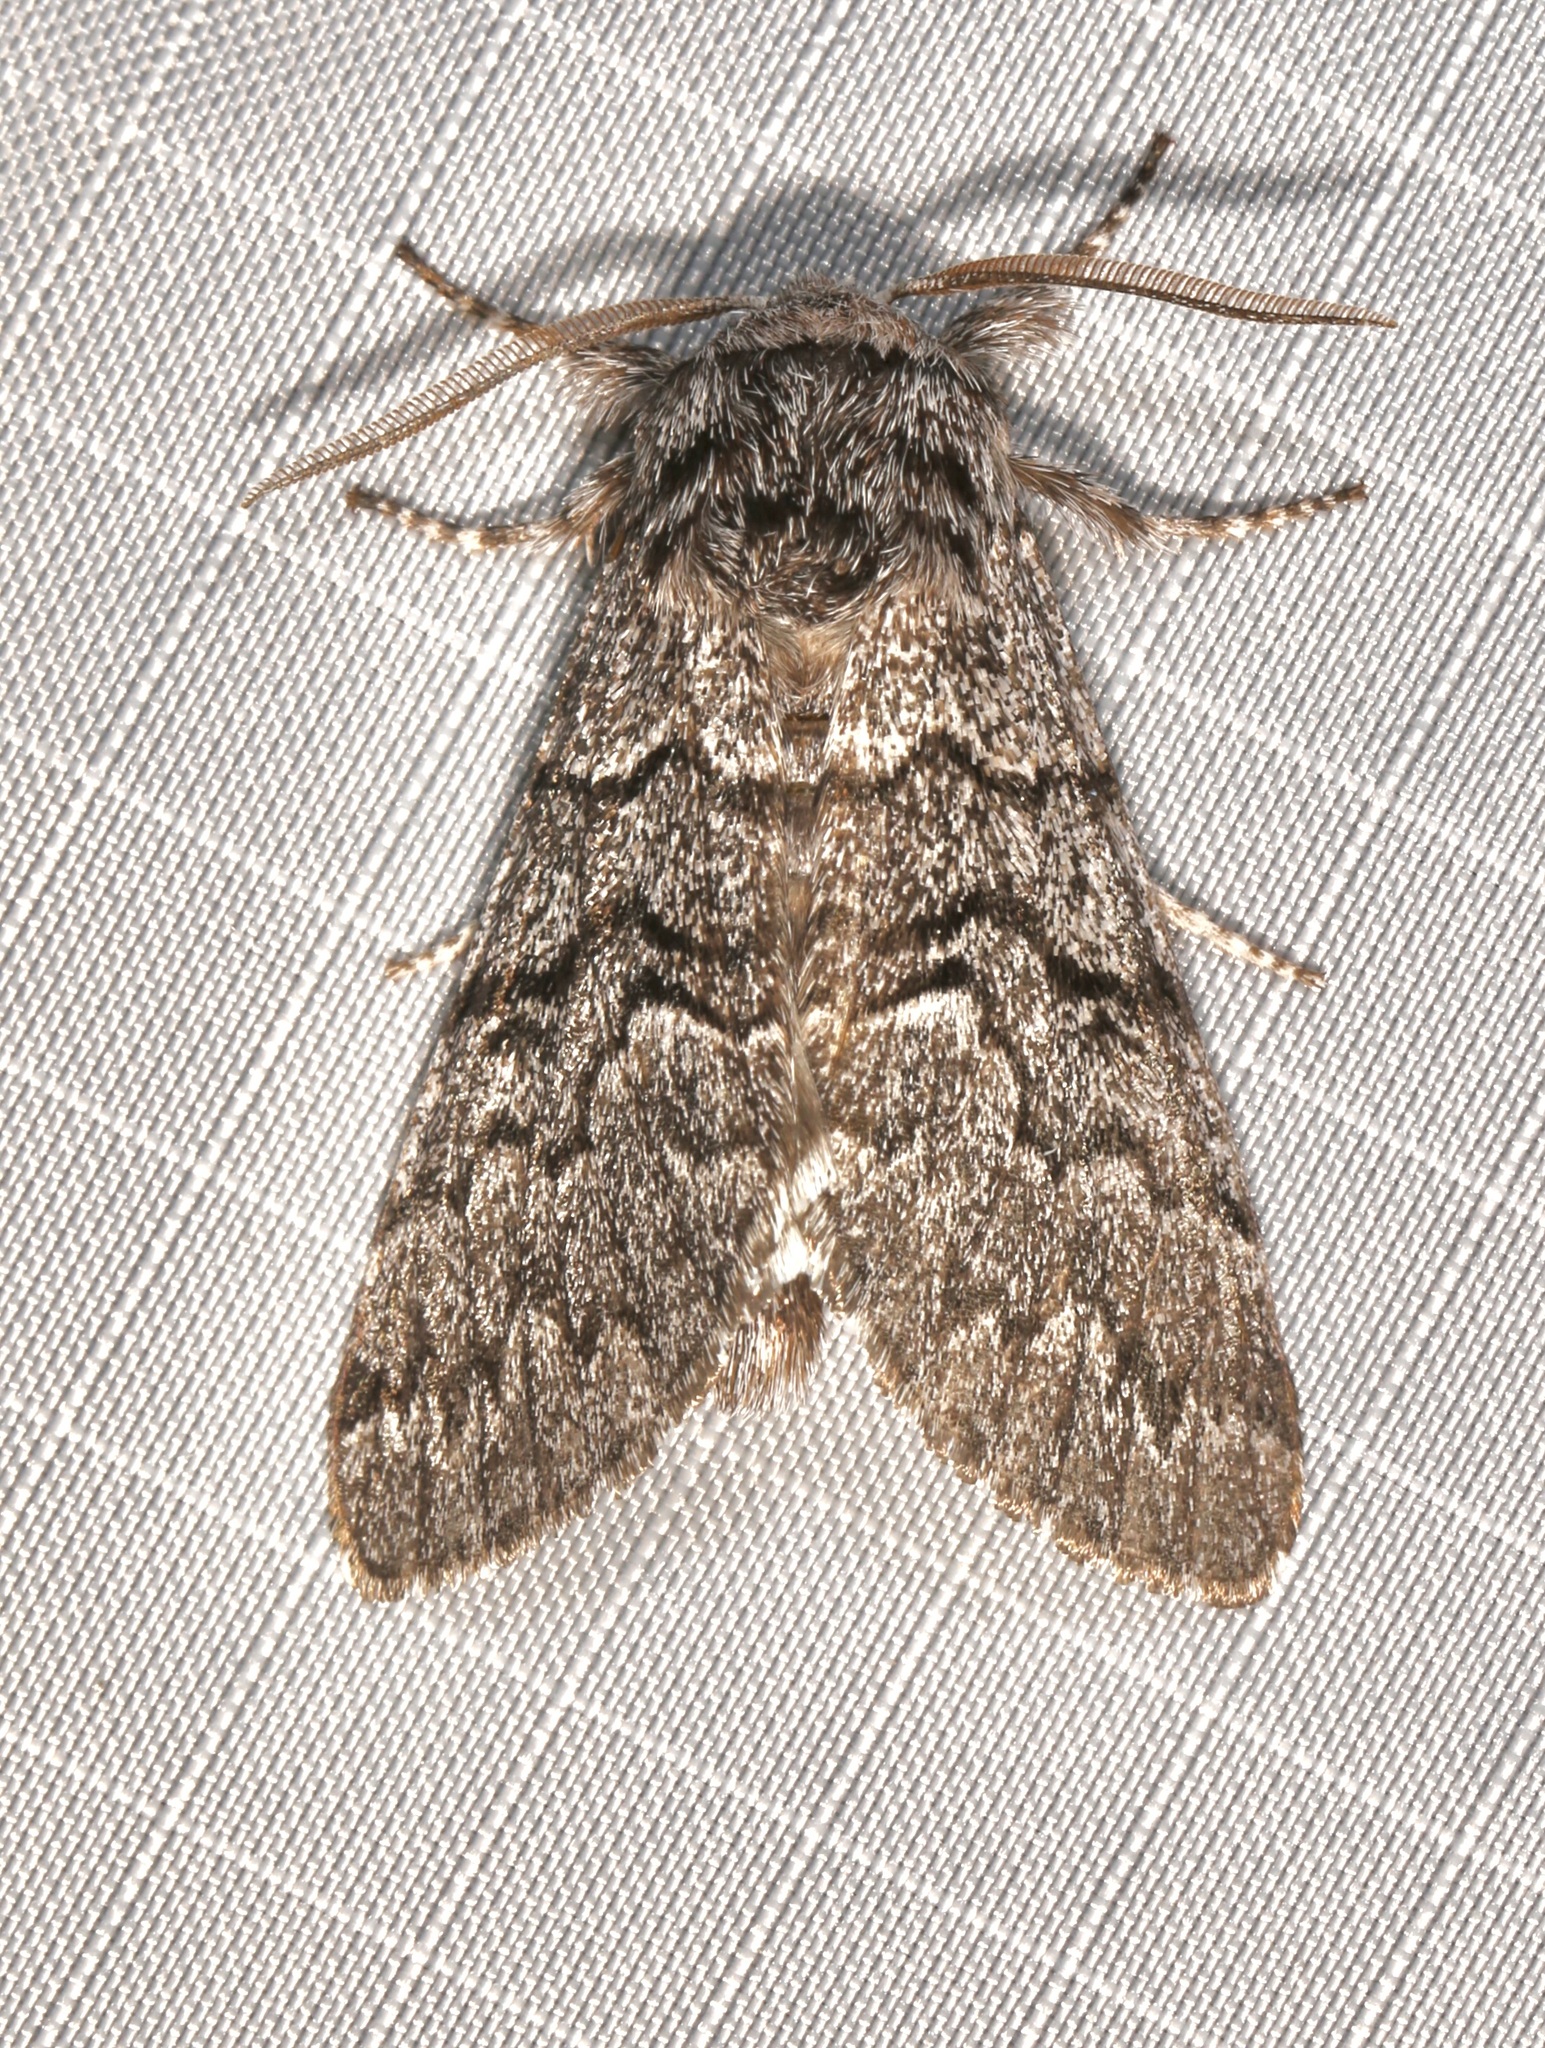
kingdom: Animalia
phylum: Arthropoda
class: Insecta
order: Lepidoptera
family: Noctuidae
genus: Panthea
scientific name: Panthea virginarius
